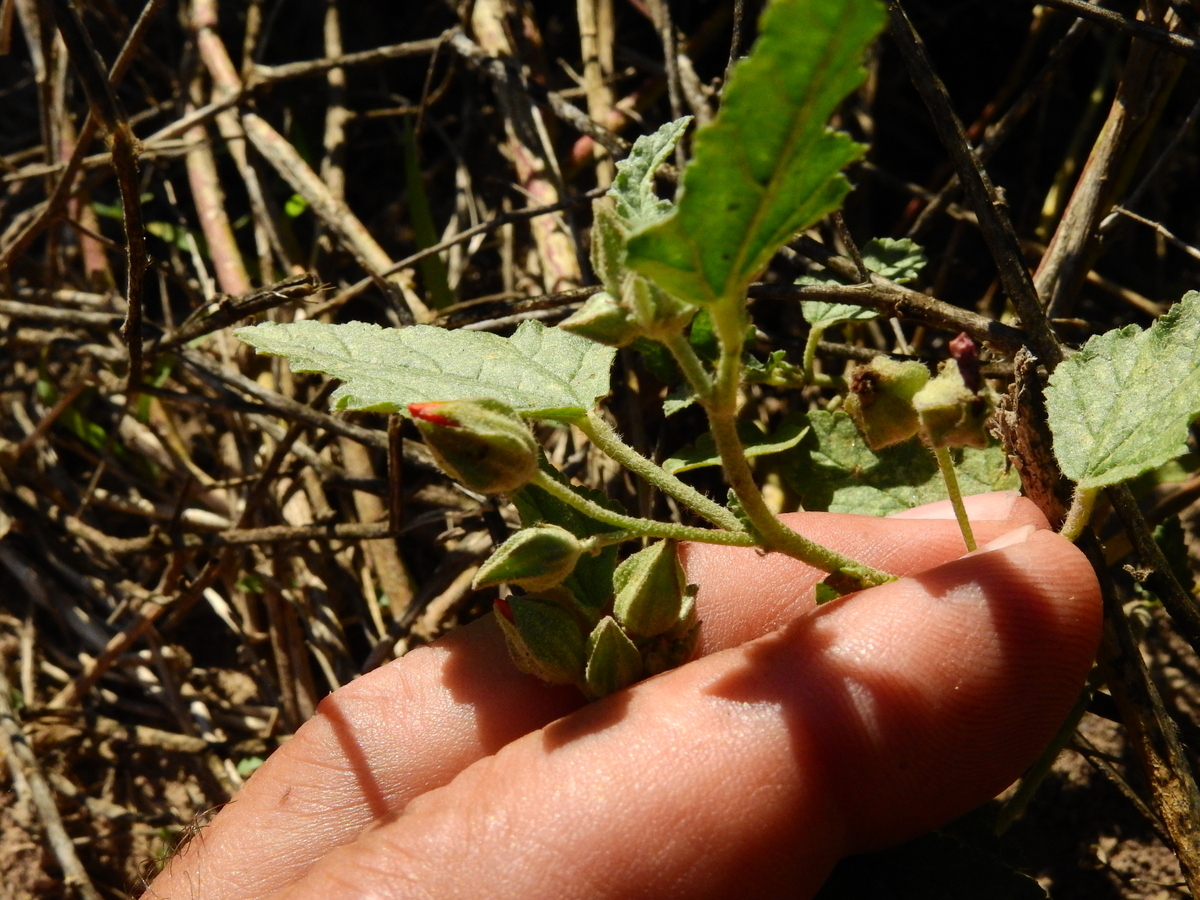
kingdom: Plantae
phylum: Tracheophyta
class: Magnoliopsida
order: Malvales
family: Malvaceae
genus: Sphaeralcea
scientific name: Sphaeralcea miniata
